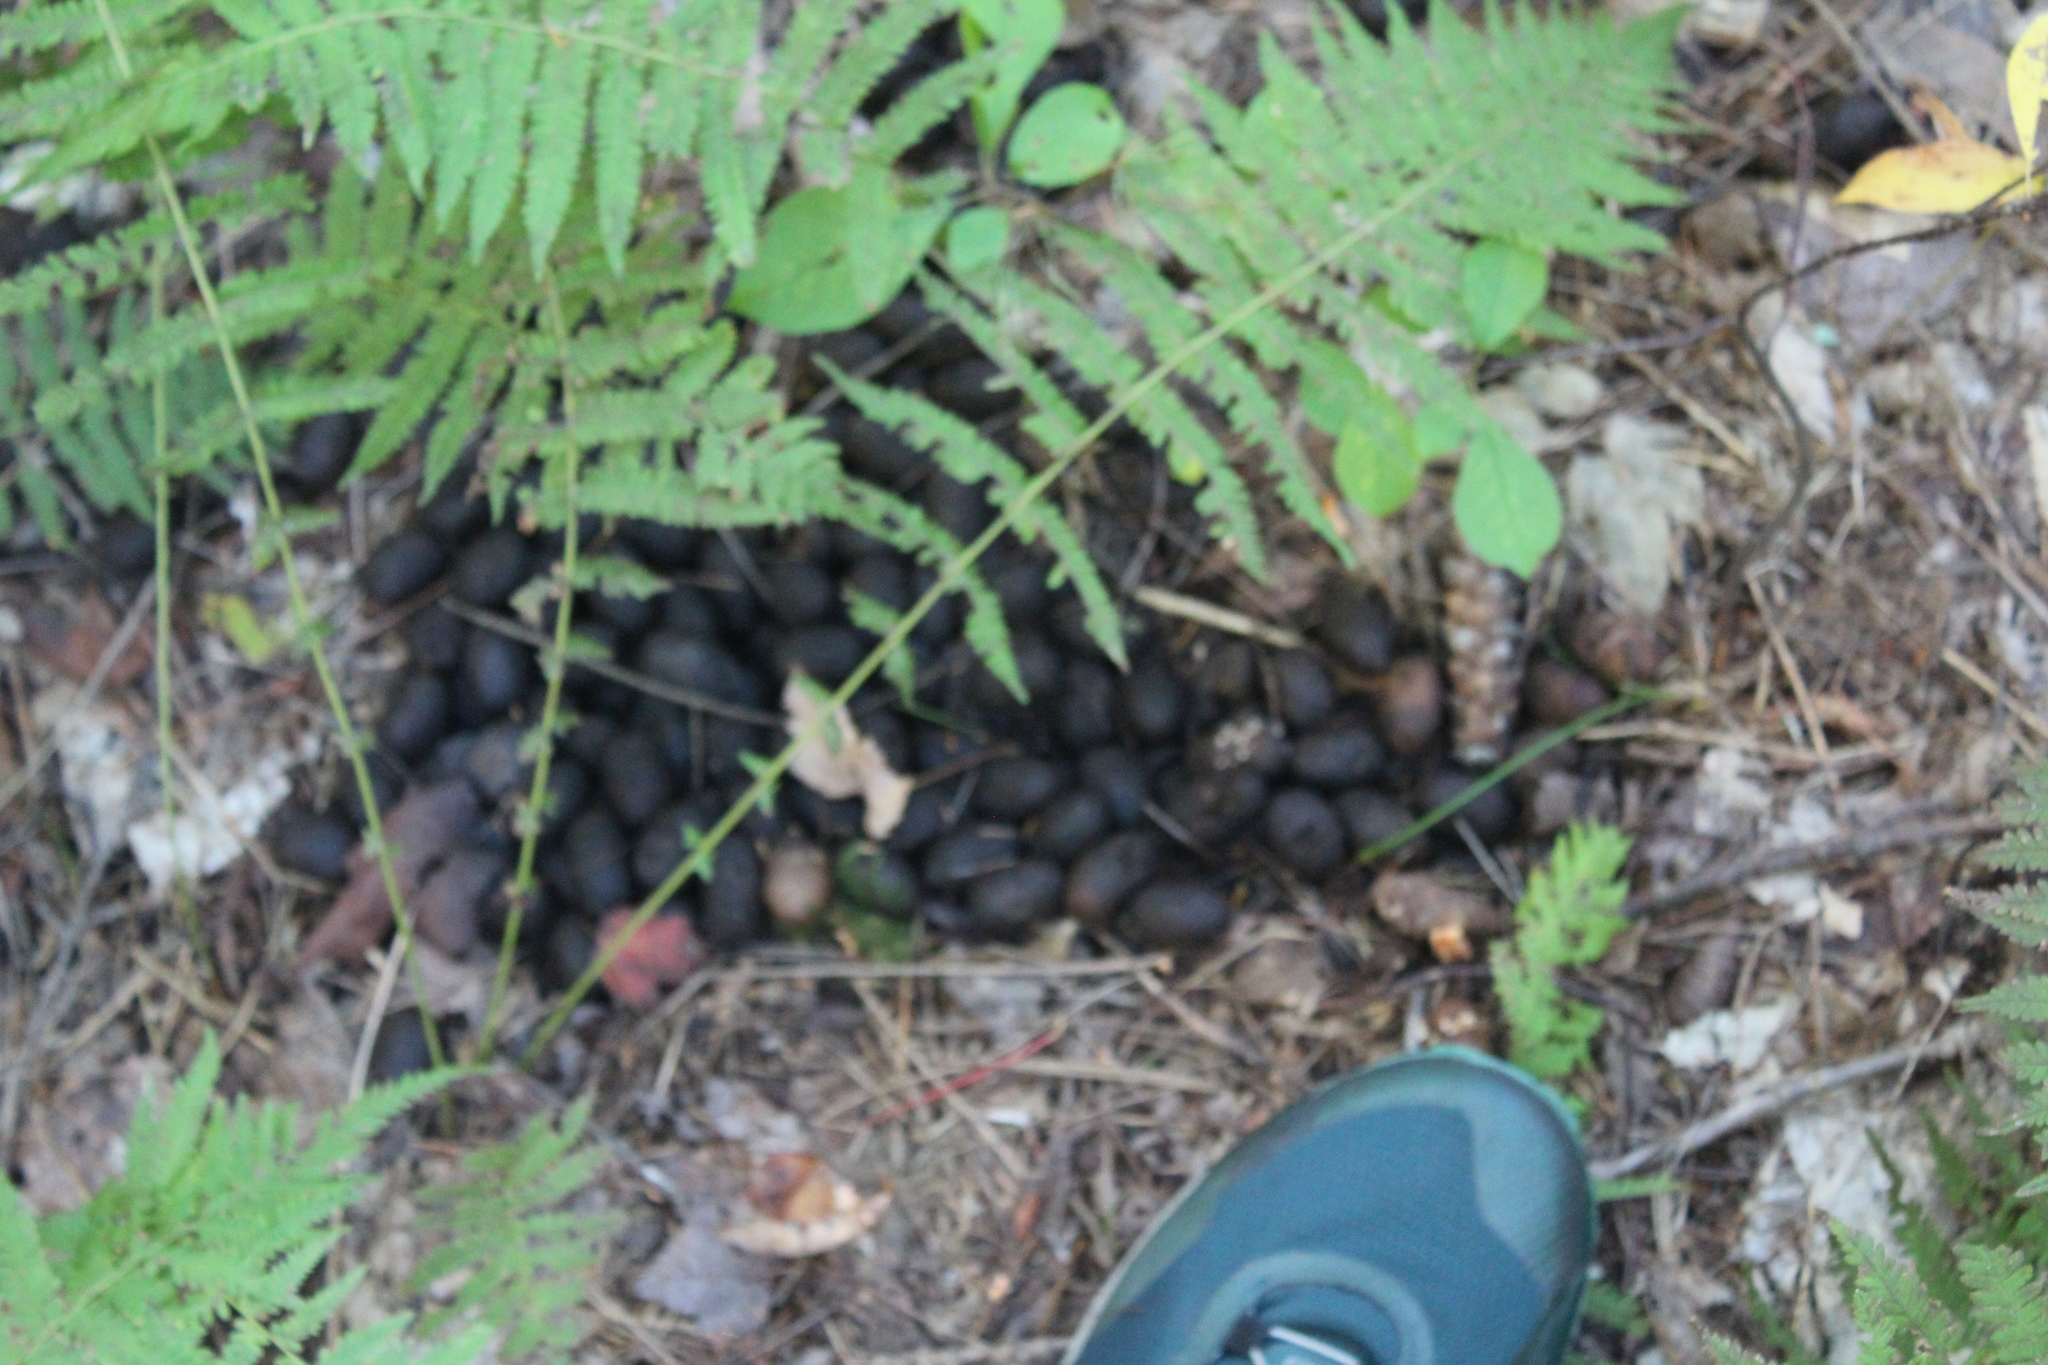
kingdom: Animalia
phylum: Chordata
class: Mammalia
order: Artiodactyla
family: Cervidae
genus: Alces
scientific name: Alces alces
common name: Moose
